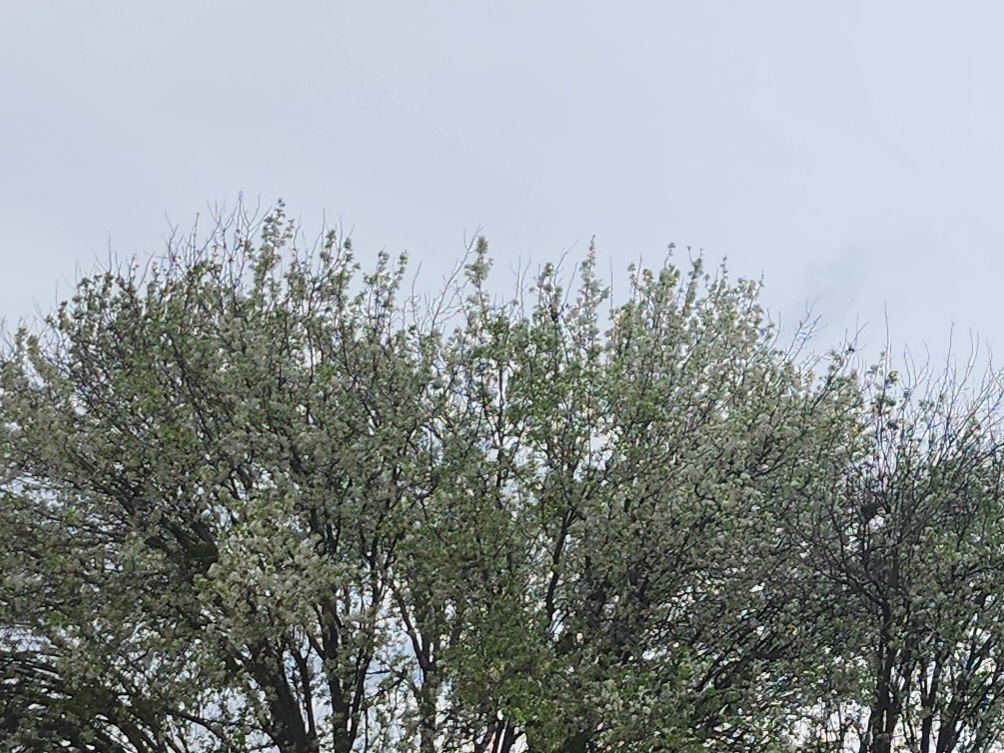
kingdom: Plantae
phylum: Tracheophyta
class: Magnoliopsida
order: Rosales
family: Rosaceae
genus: Pyrus
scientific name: Pyrus calleryana
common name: Callery pear
